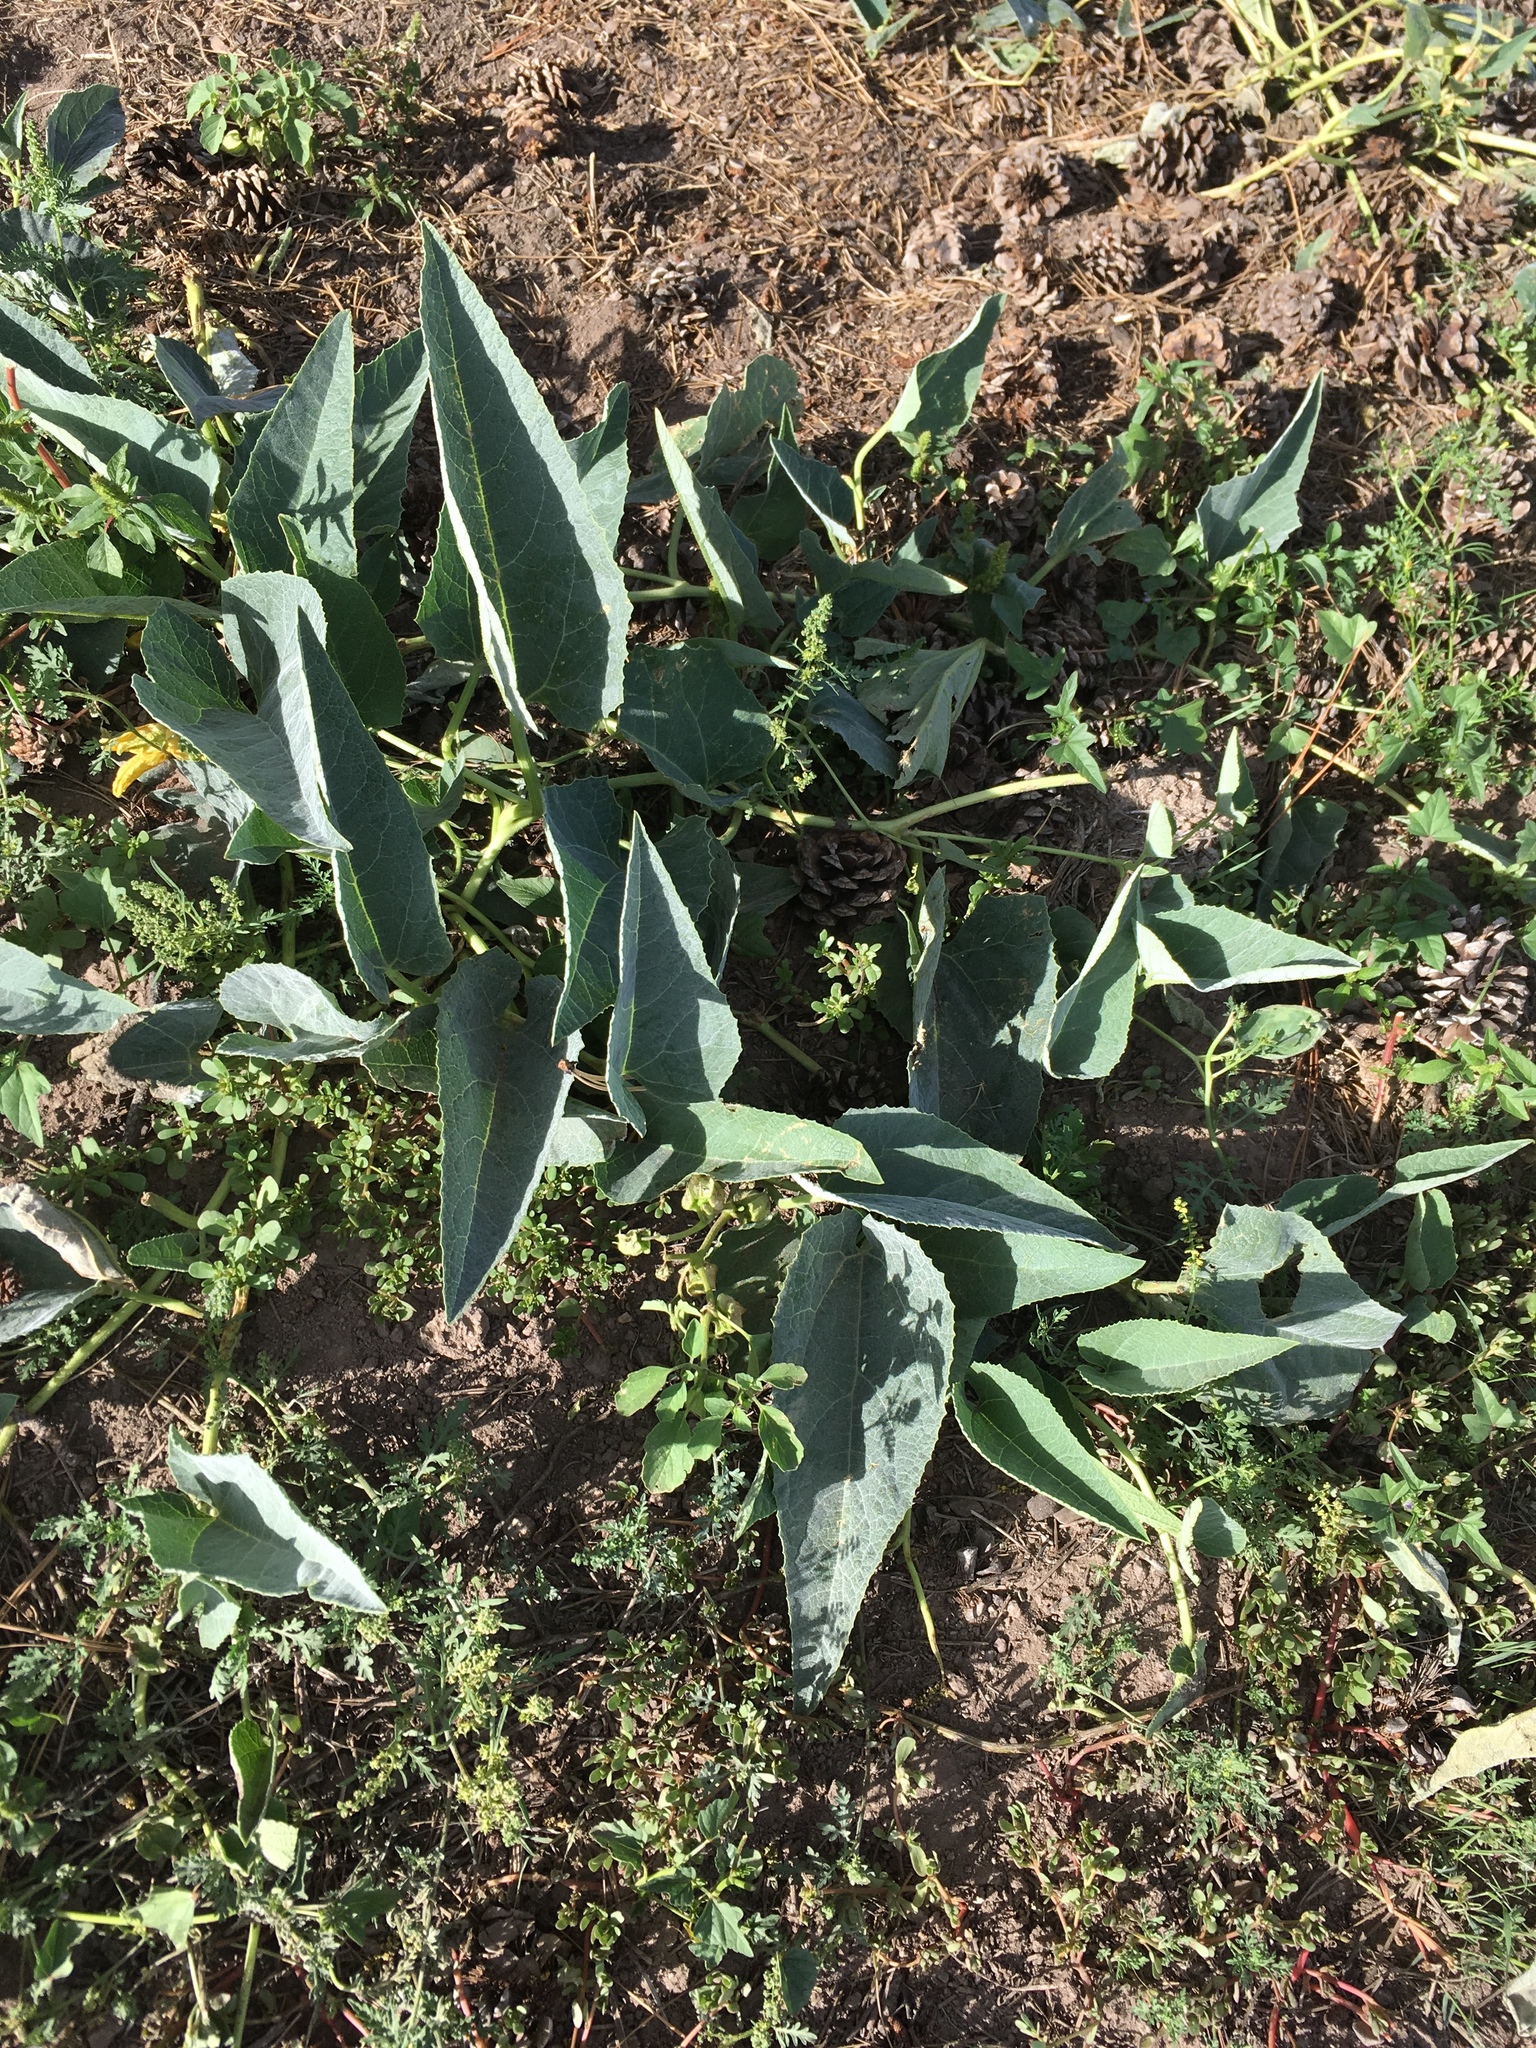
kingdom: Plantae
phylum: Tracheophyta
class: Magnoliopsida
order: Cucurbitales
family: Cucurbitaceae
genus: Cucurbita
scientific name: Cucurbita foetidissima
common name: Buffalo gourd
